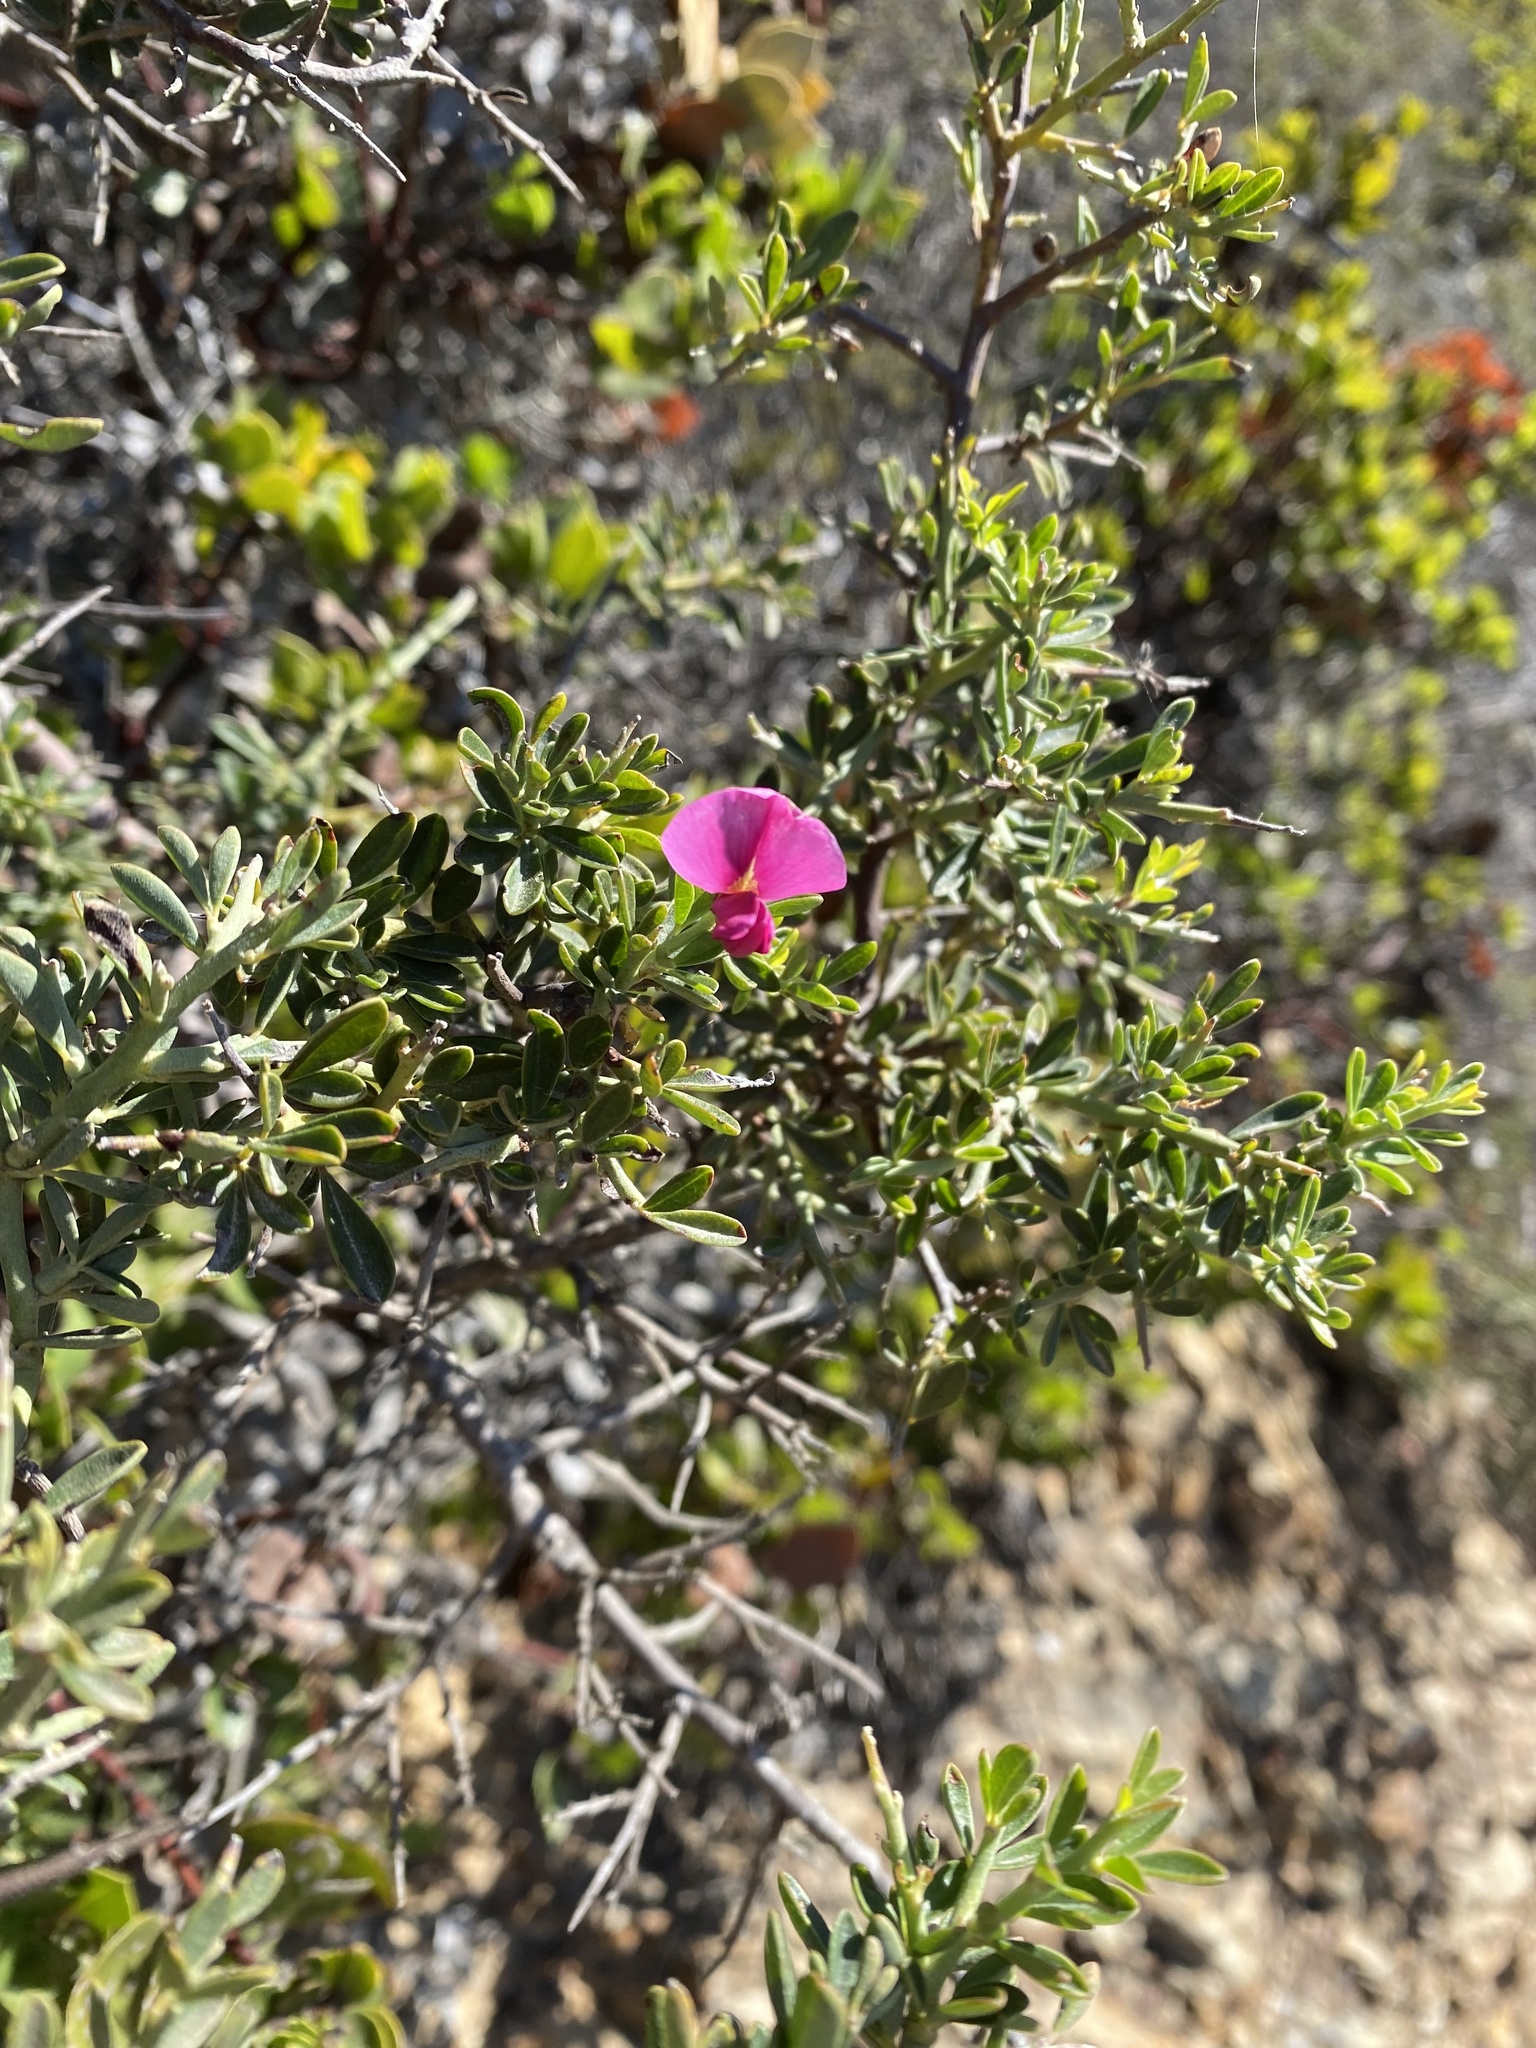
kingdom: Plantae
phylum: Tracheophyta
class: Magnoliopsida
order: Fabales
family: Fabaceae
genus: Pickeringia
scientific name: Pickeringia montana
